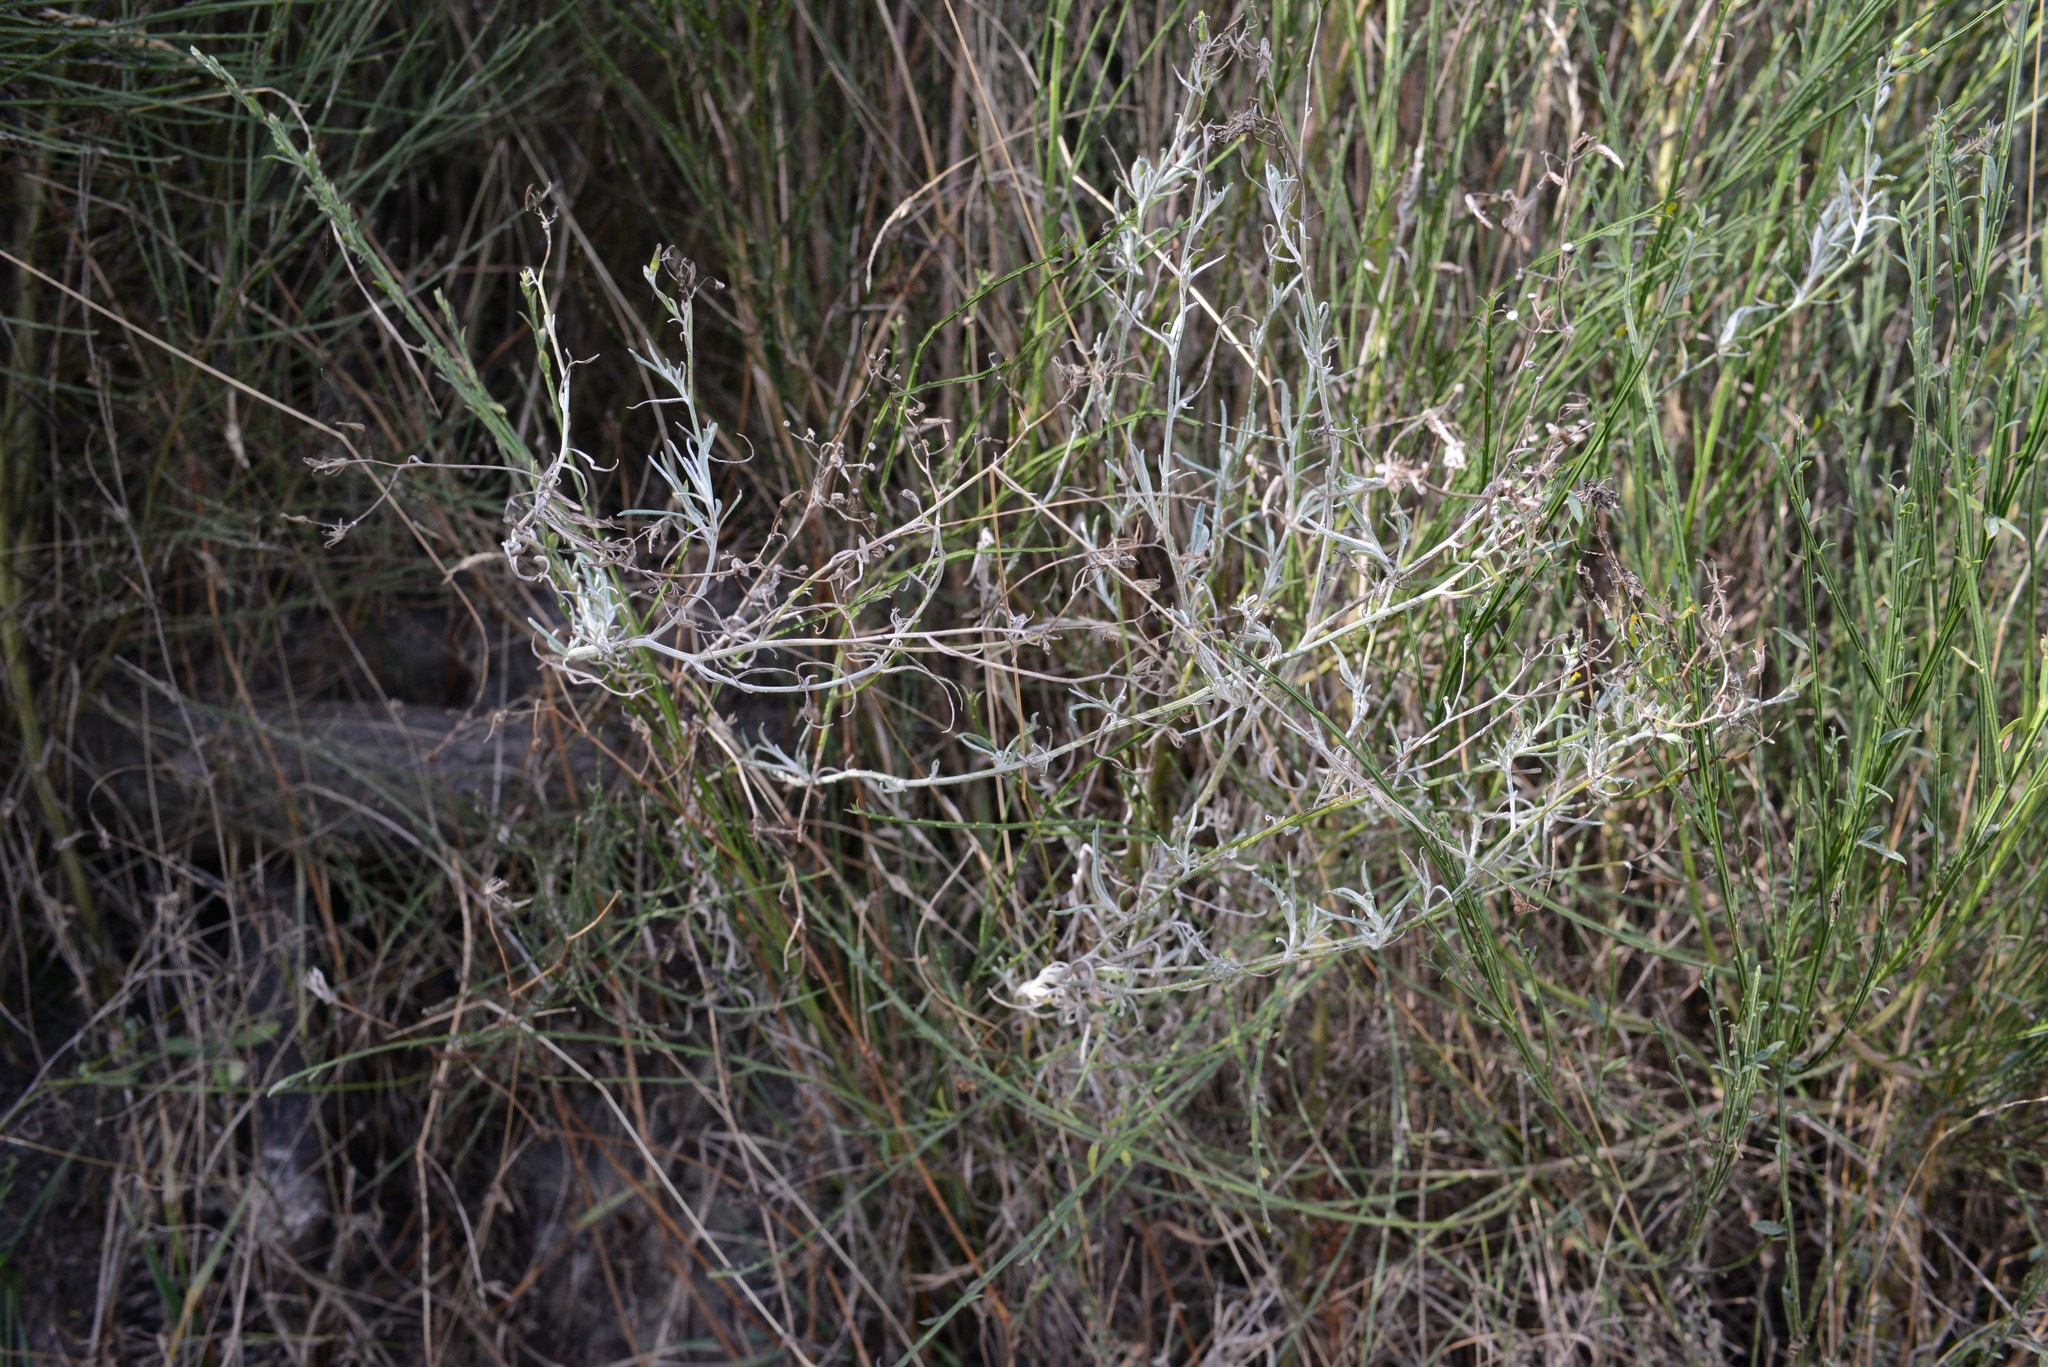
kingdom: Plantae
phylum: Tracheophyta
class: Magnoliopsida
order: Asterales
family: Asteraceae
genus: Senecio
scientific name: Senecio quadridentatus
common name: Cotton fireweed
